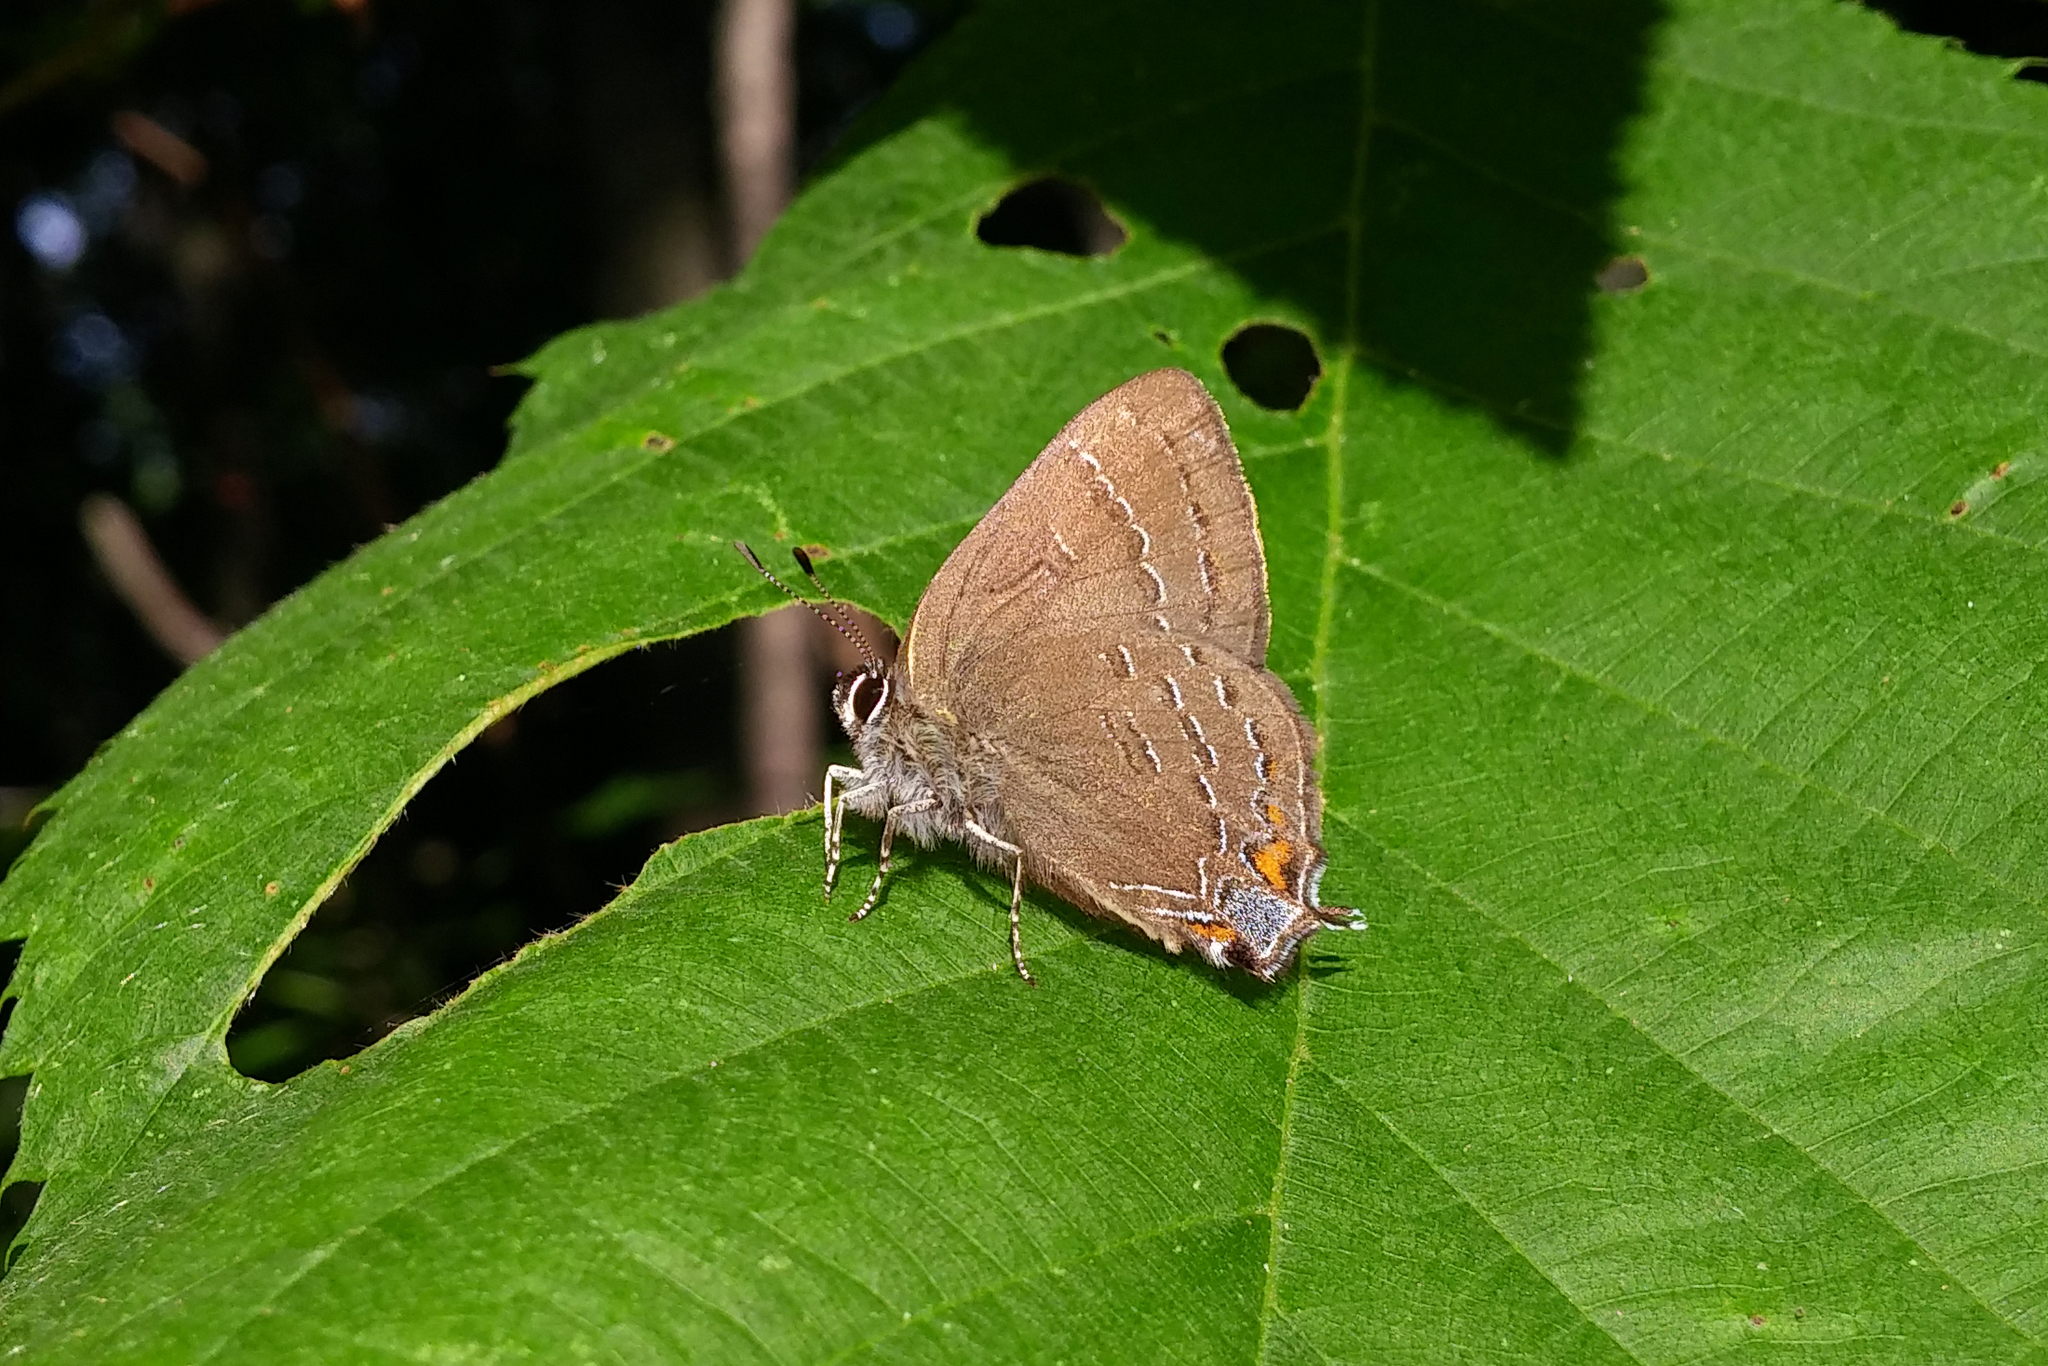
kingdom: Animalia
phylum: Arthropoda
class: Insecta
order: Lepidoptera
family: Lycaenidae
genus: Satyrium
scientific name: Satyrium calanus
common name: Banded hairstreak
